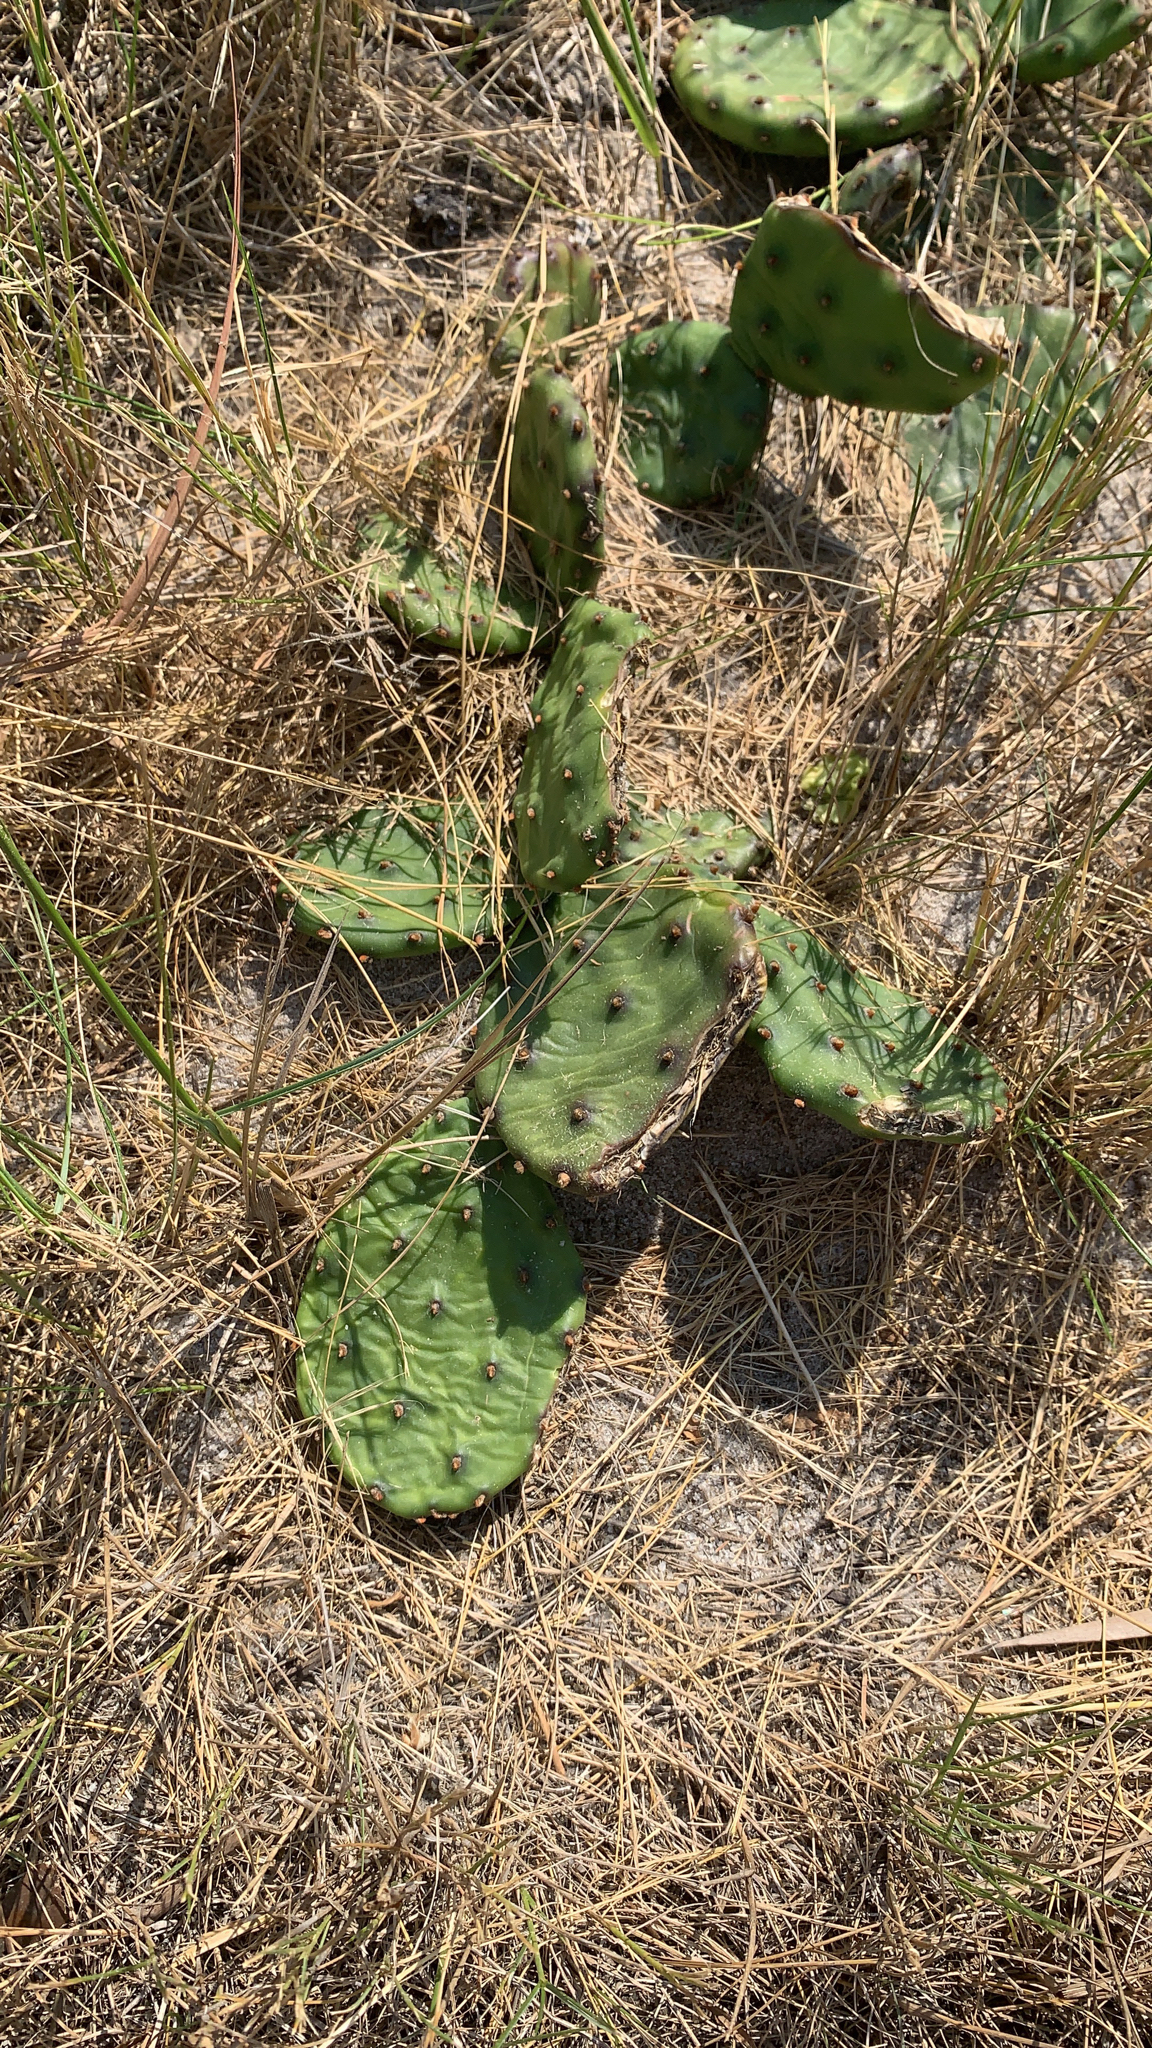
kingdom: Plantae
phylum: Tracheophyta
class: Magnoliopsida
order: Caryophyllales
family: Cactaceae
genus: Opuntia
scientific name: Opuntia humifusa
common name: Eastern prickly-pear
